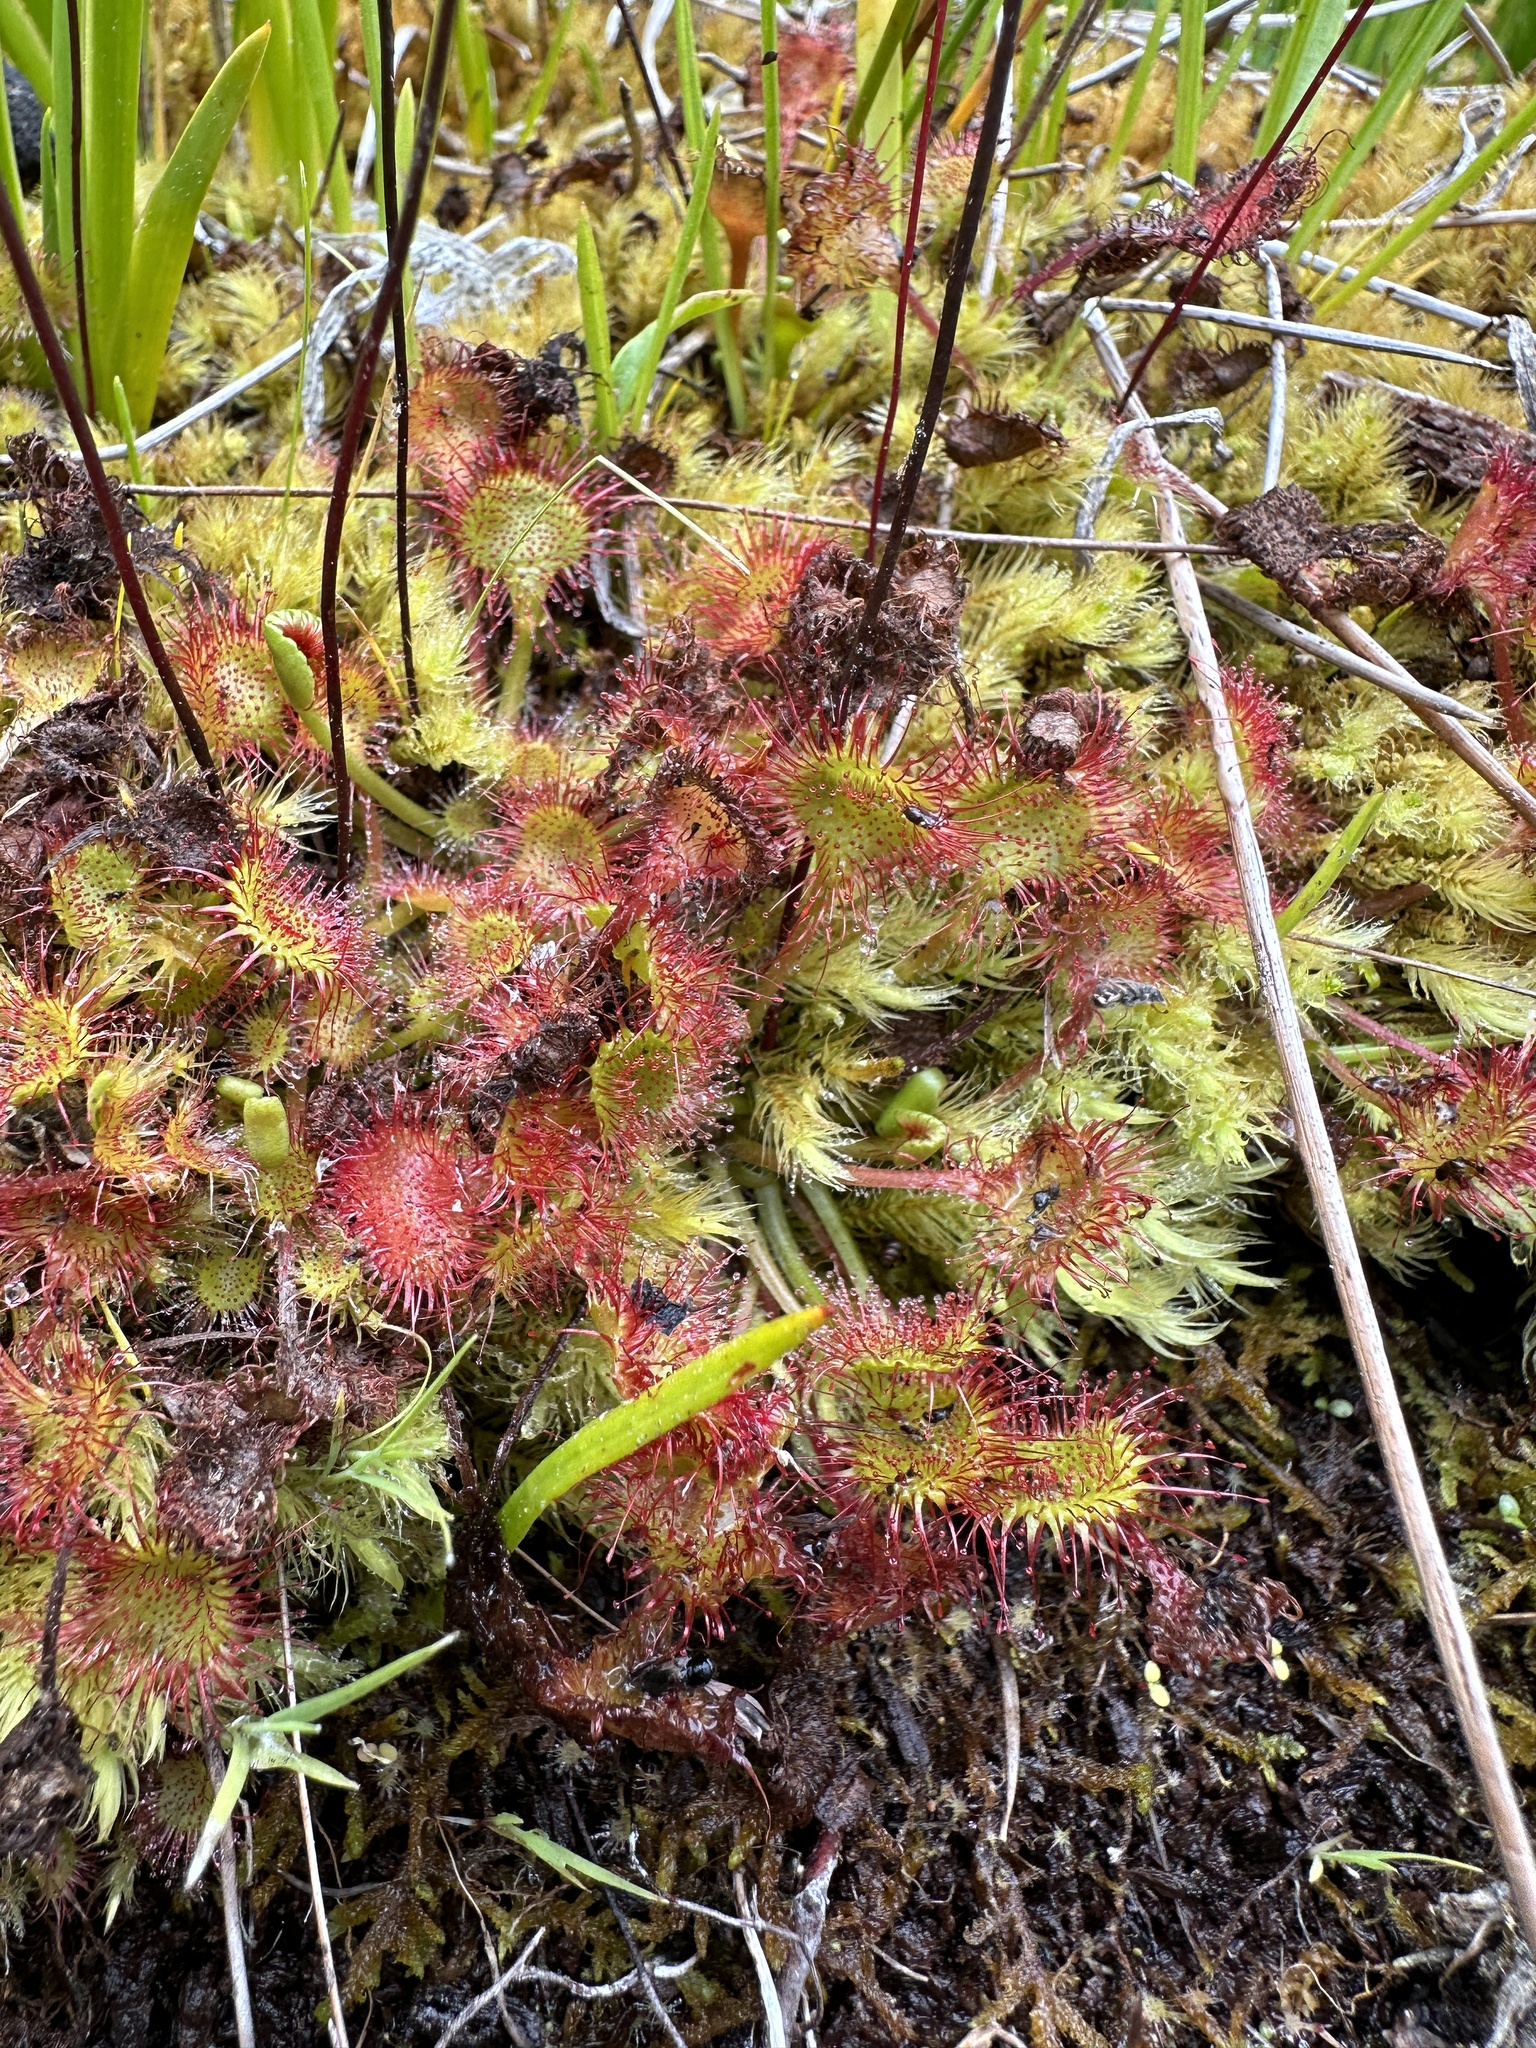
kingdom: Plantae
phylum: Tracheophyta
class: Magnoliopsida
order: Caryophyllales
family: Droseraceae
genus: Drosera
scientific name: Drosera rotundifolia
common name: Round-leaved sundew
